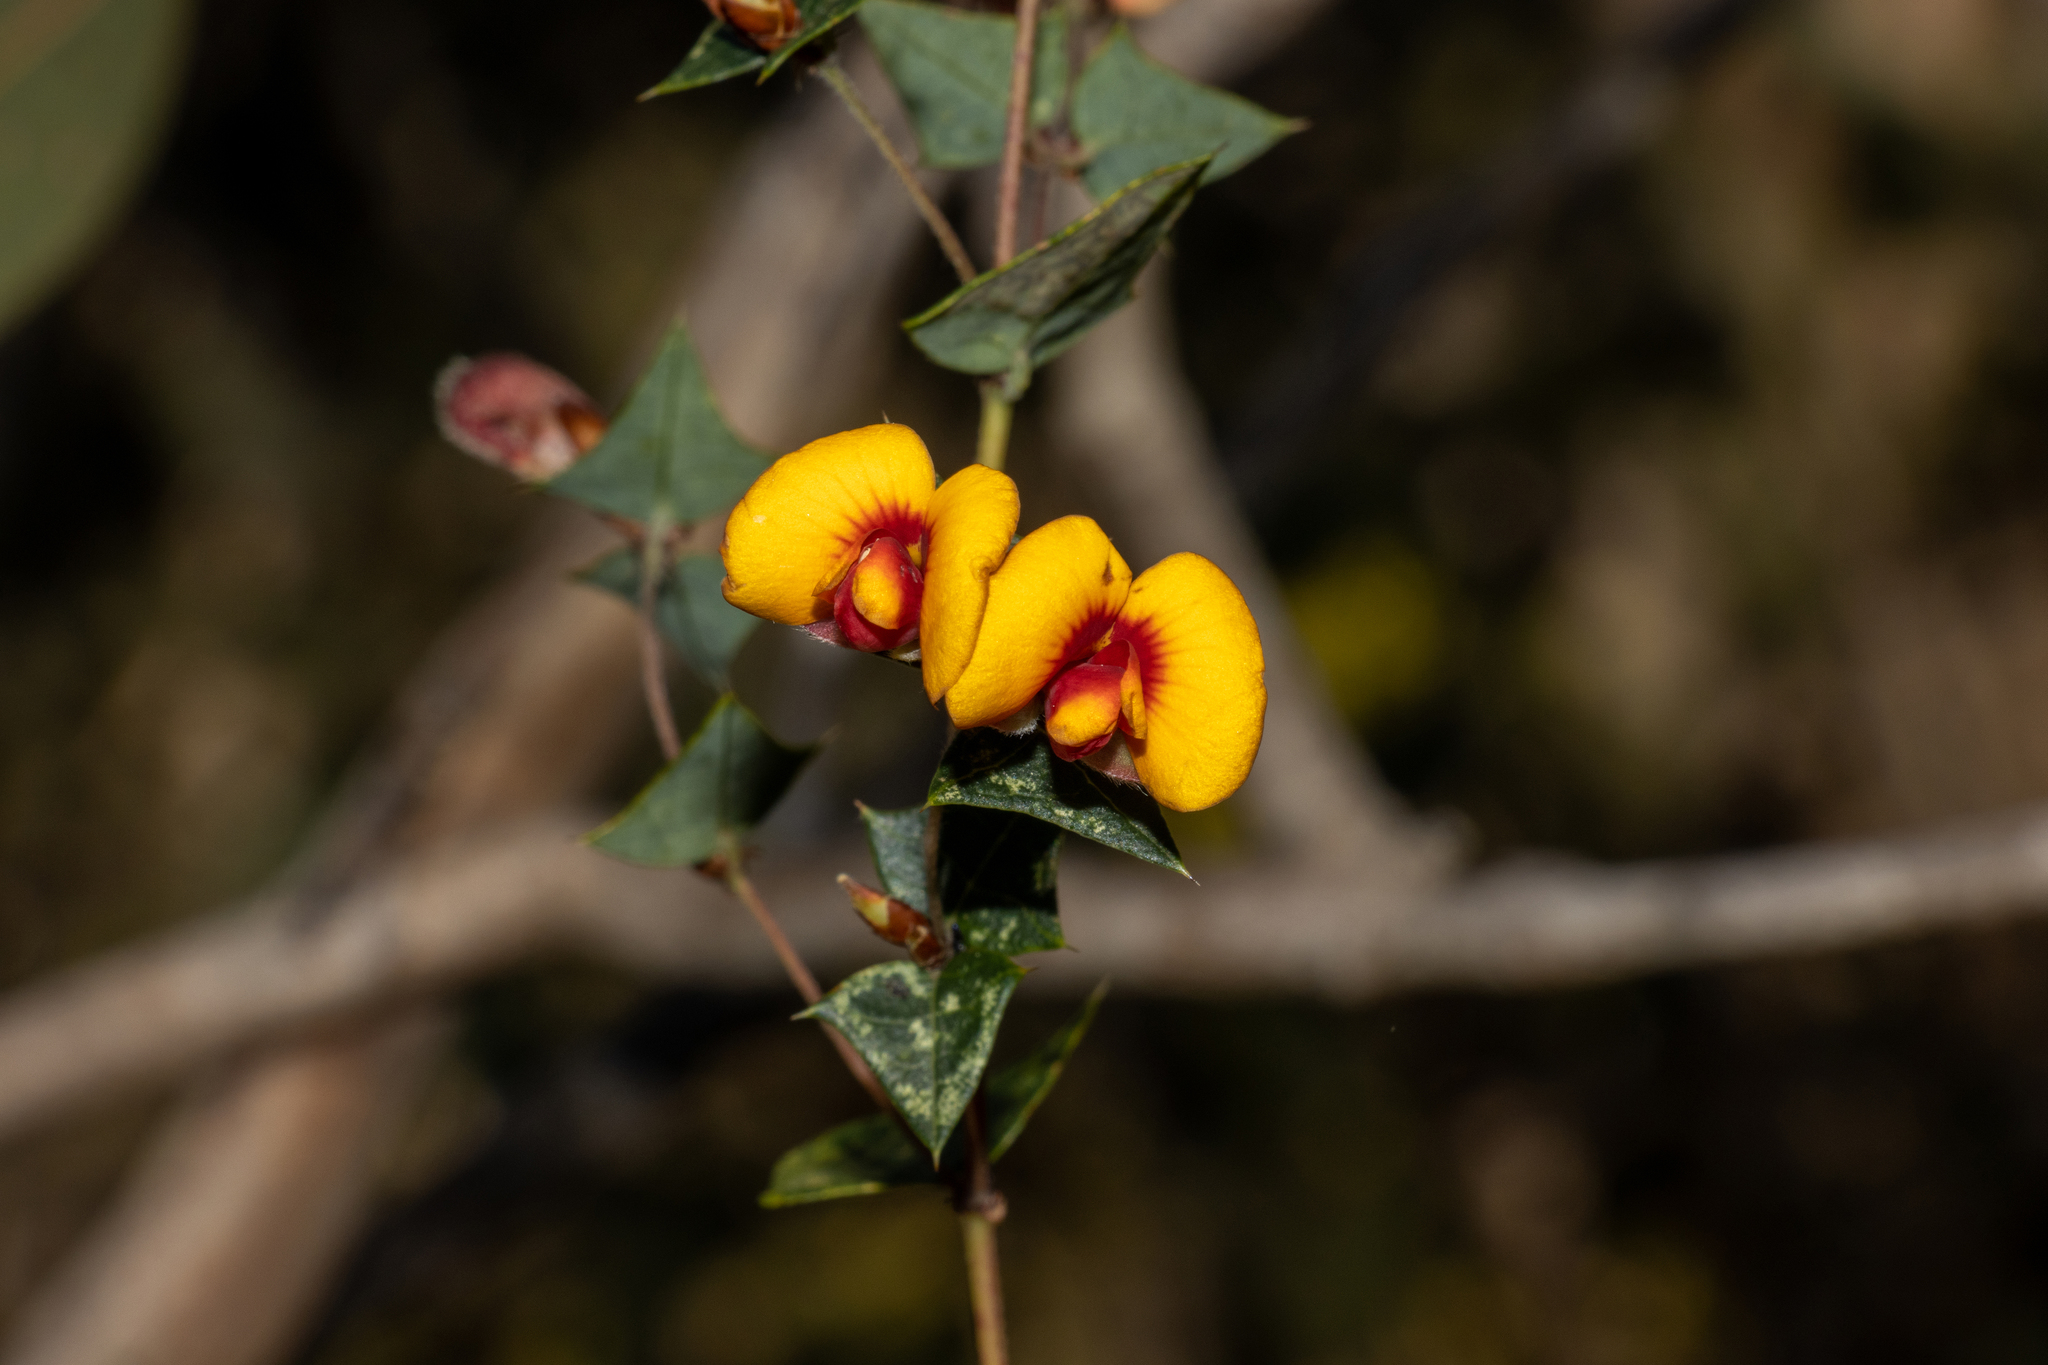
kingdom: Plantae
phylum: Tracheophyta
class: Magnoliopsida
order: Fabales
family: Fabaceae
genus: Platylobium
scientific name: Platylobium obtusangulum
